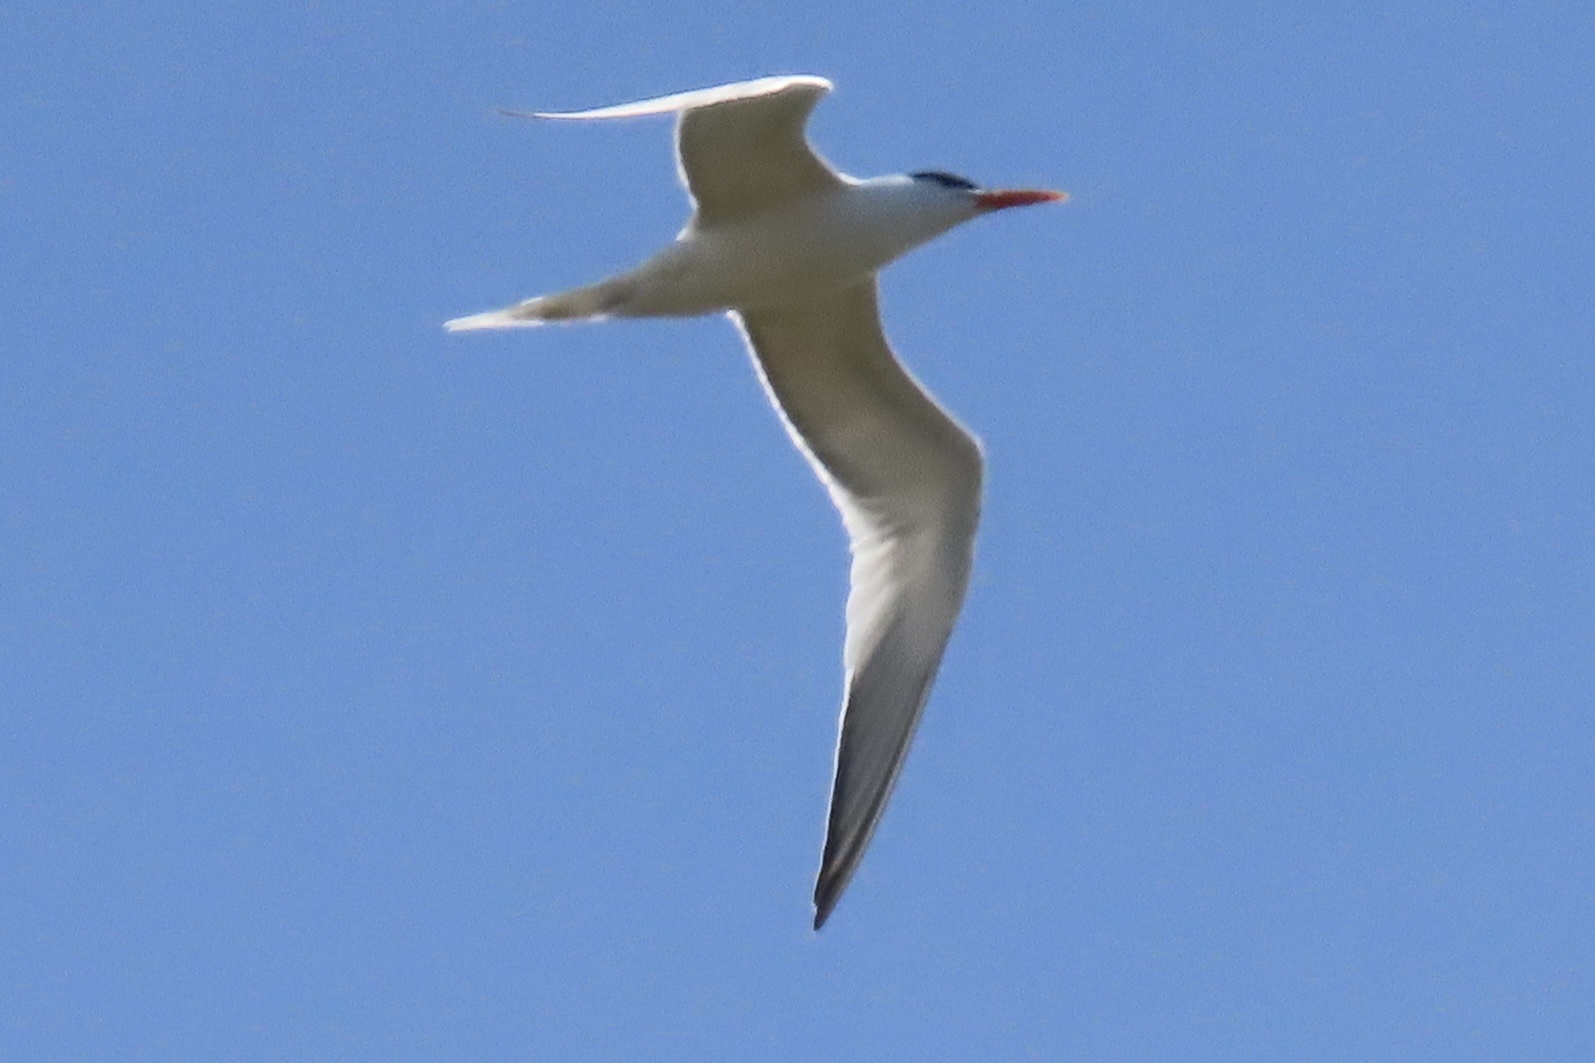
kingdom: Animalia
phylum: Chordata
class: Aves
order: Charadriiformes
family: Laridae
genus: Thalasseus
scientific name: Thalasseus maximus
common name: Royal tern
